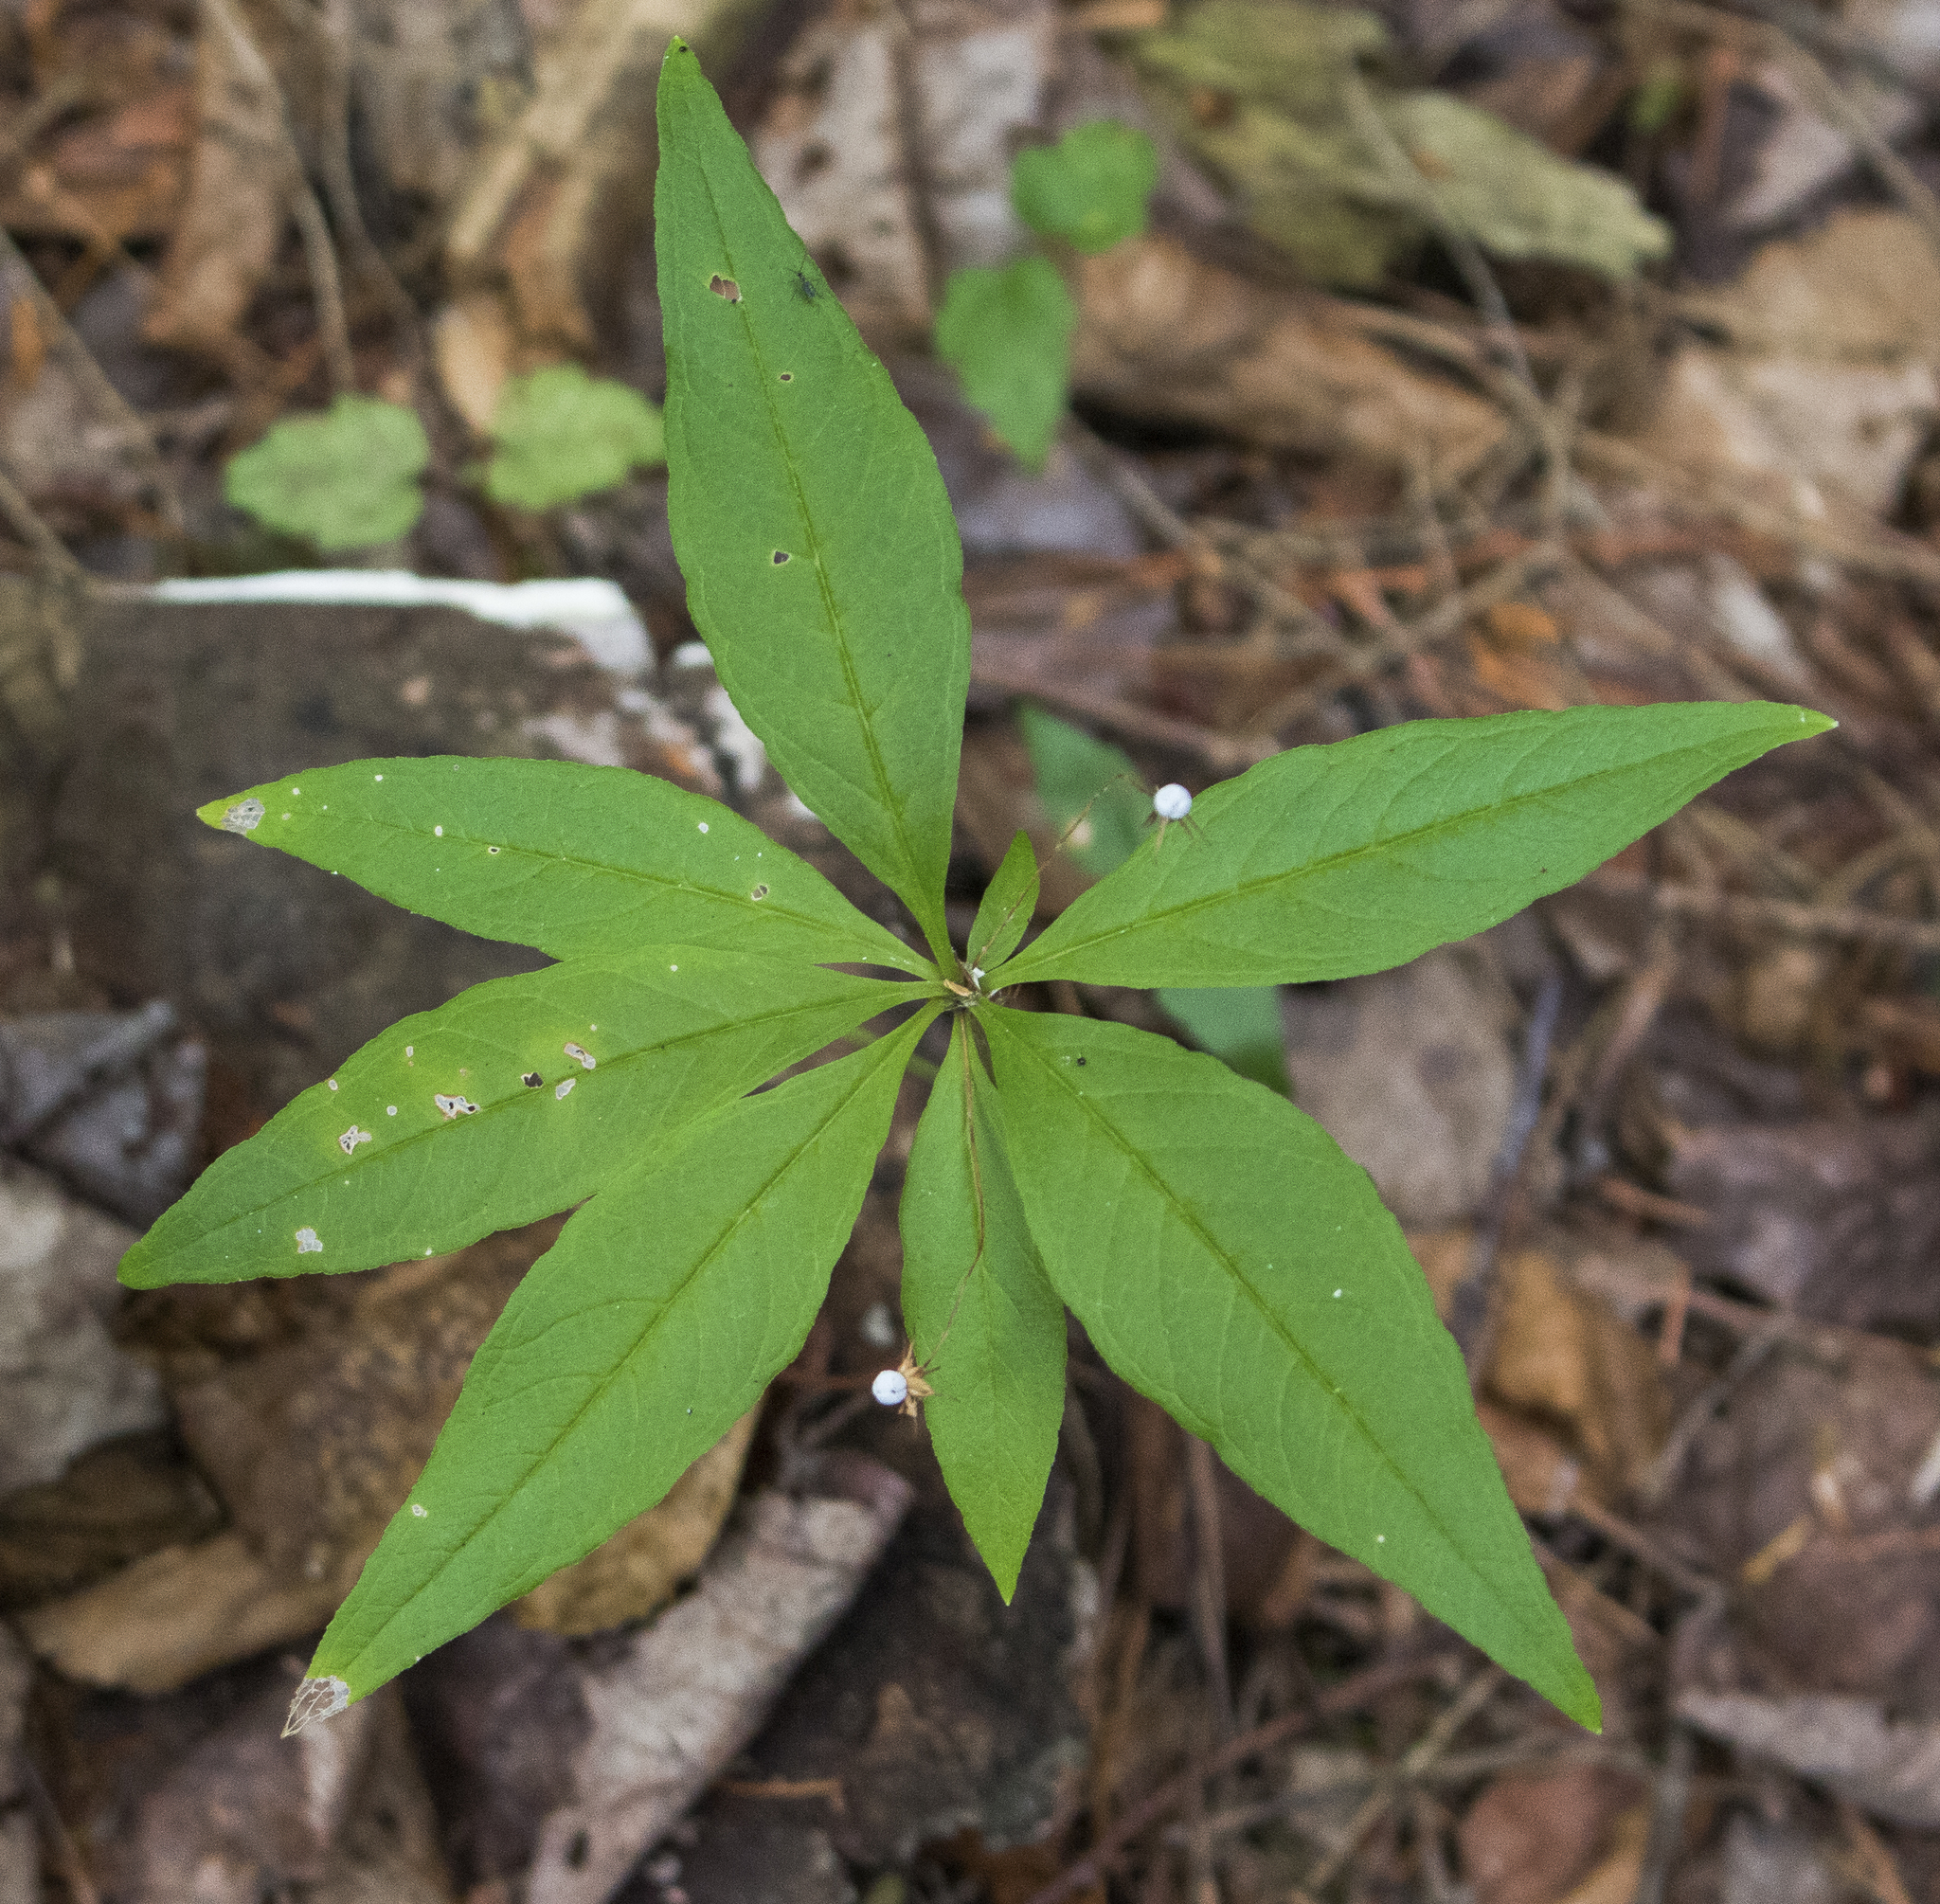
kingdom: Plantae
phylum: Tracheophyta
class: Magnoliopsida
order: Ericales
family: Primulaceae
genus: Lysimachia
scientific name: Lysimachia borealis
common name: American starflower
